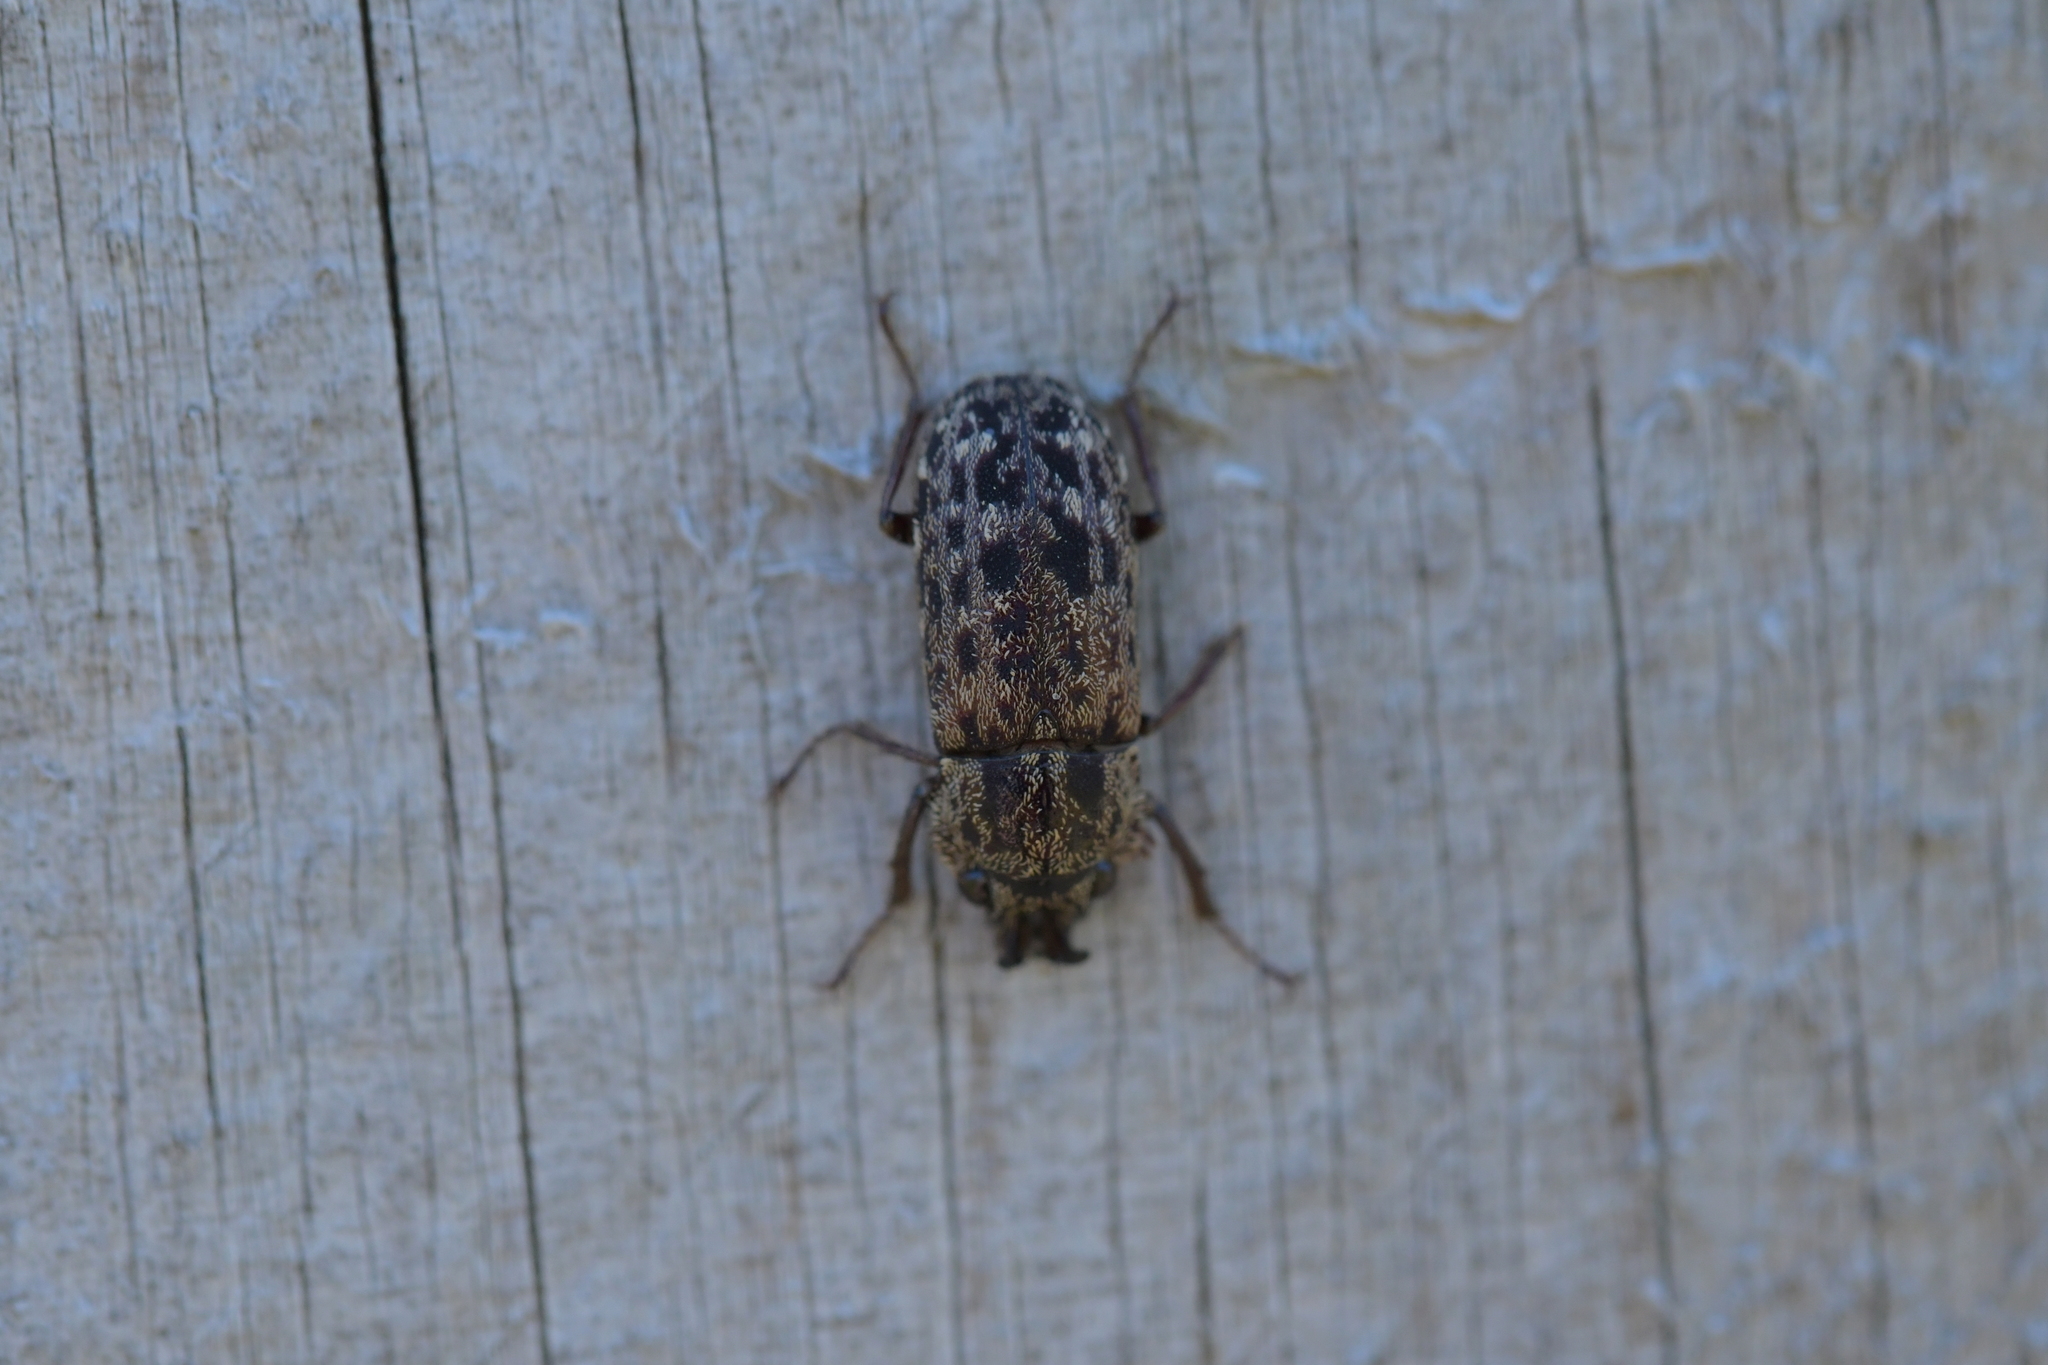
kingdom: Animalia
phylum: Arthropoda
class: Insecta
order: Coleoptera
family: Lucanidae
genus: Mitophyllus
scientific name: Mitophyllus irroratus
